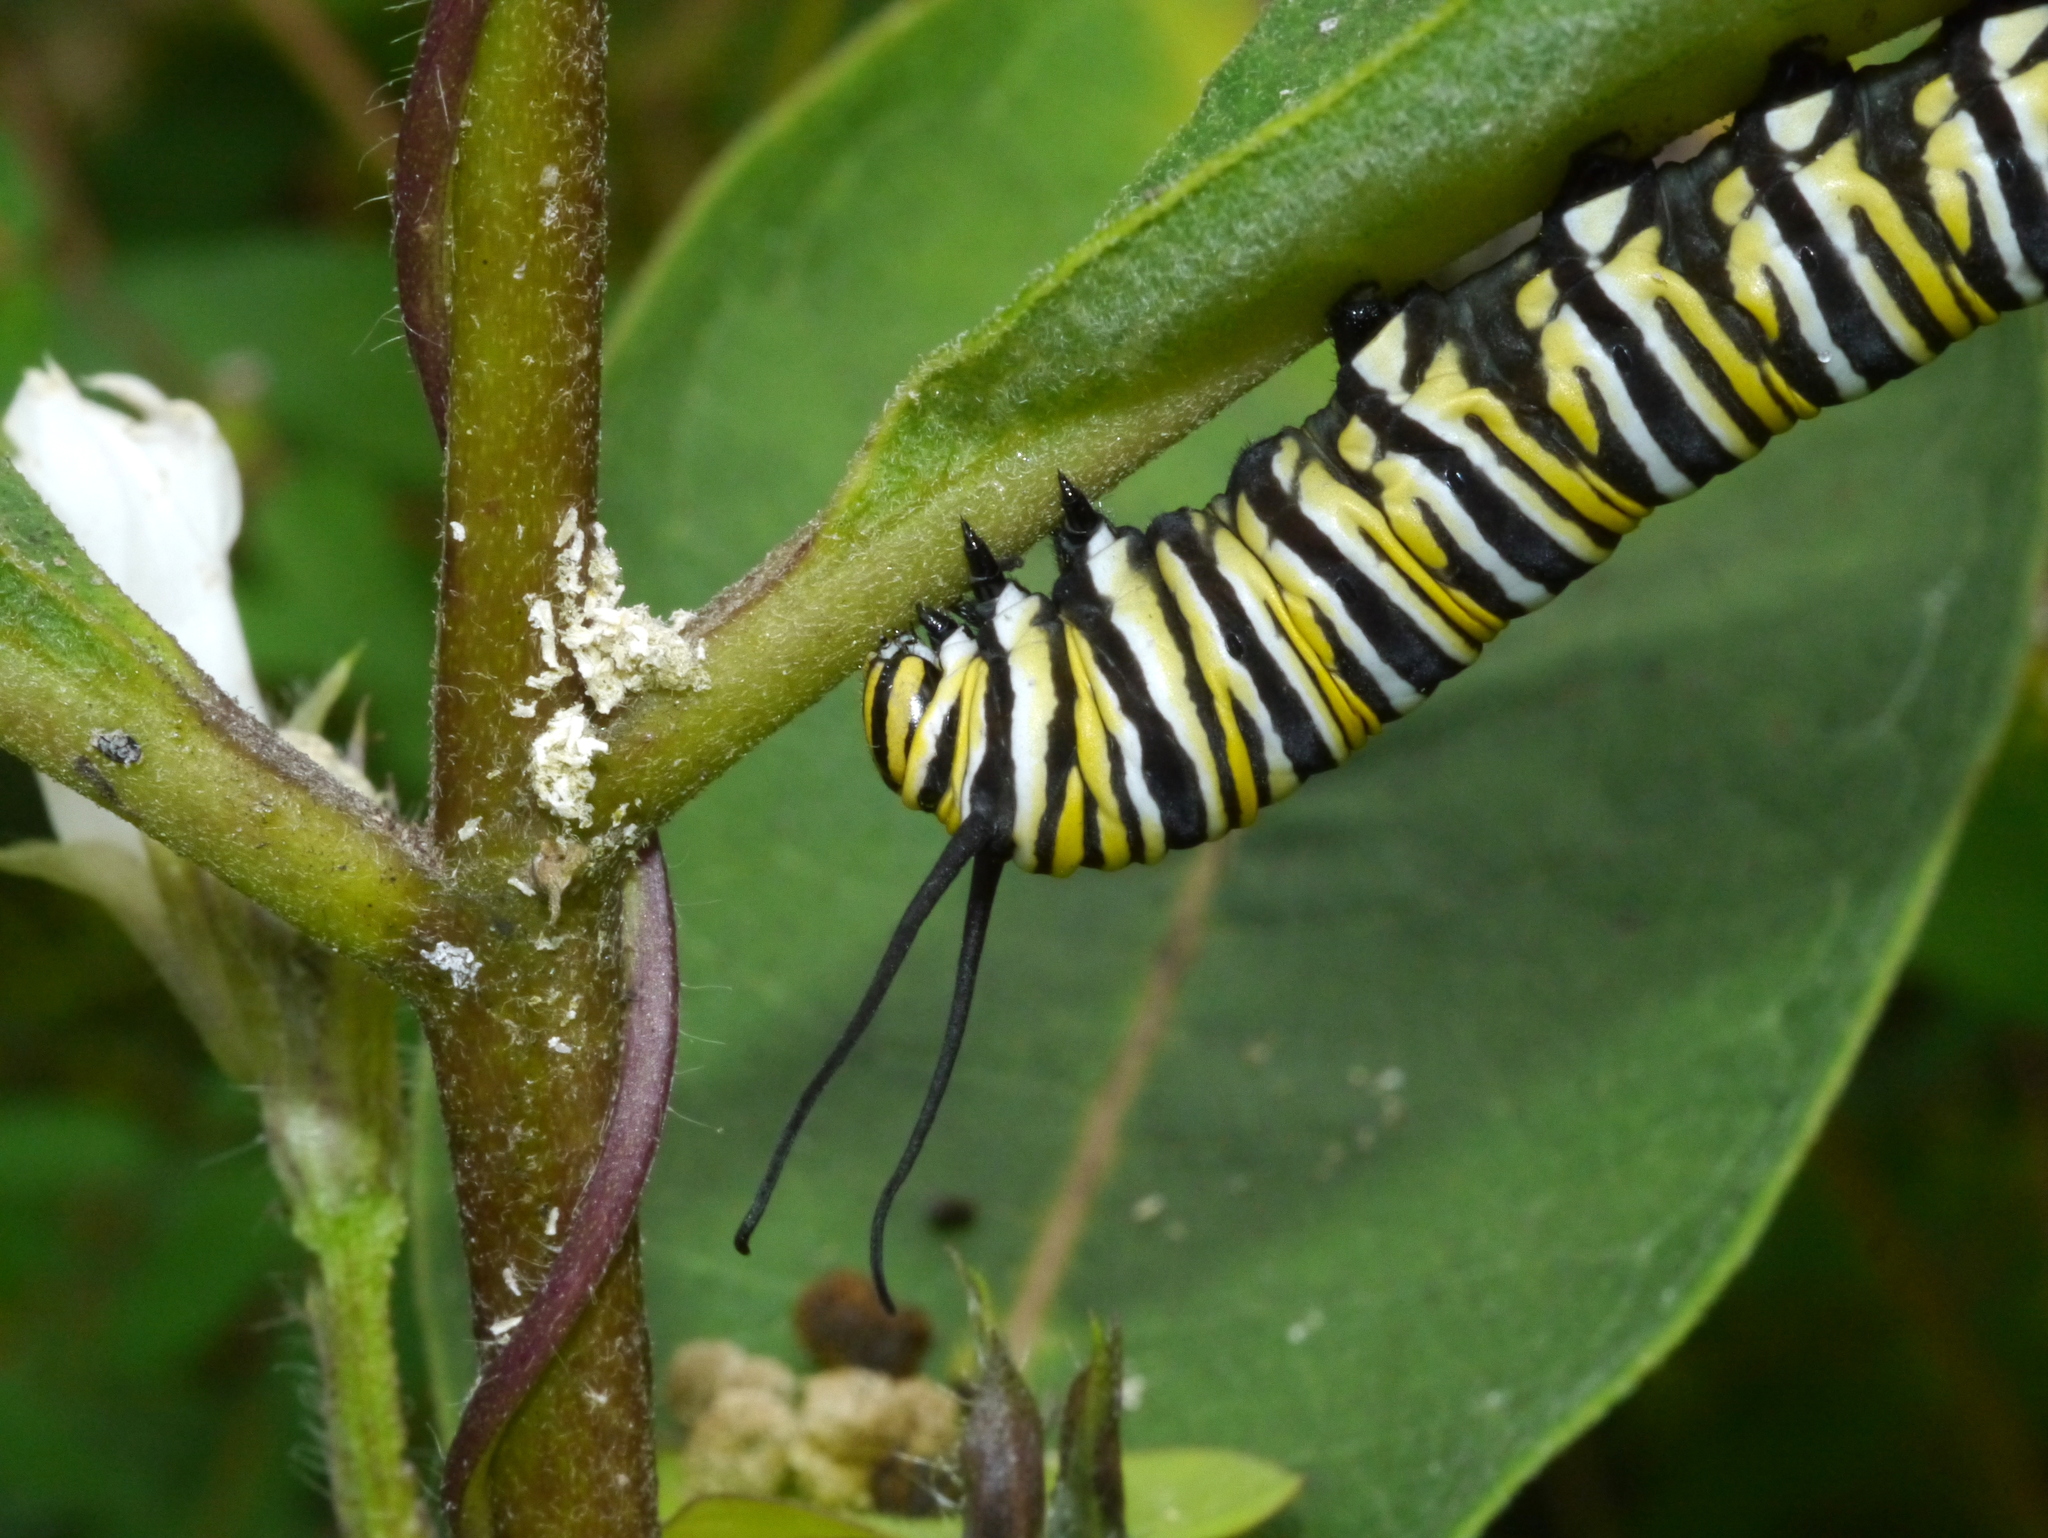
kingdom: Animalia
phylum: Arthropoda
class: Insecta
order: Lepidoptera
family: Nymphalidae
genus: Danaus
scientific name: Danaus plexippus
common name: Monarch
